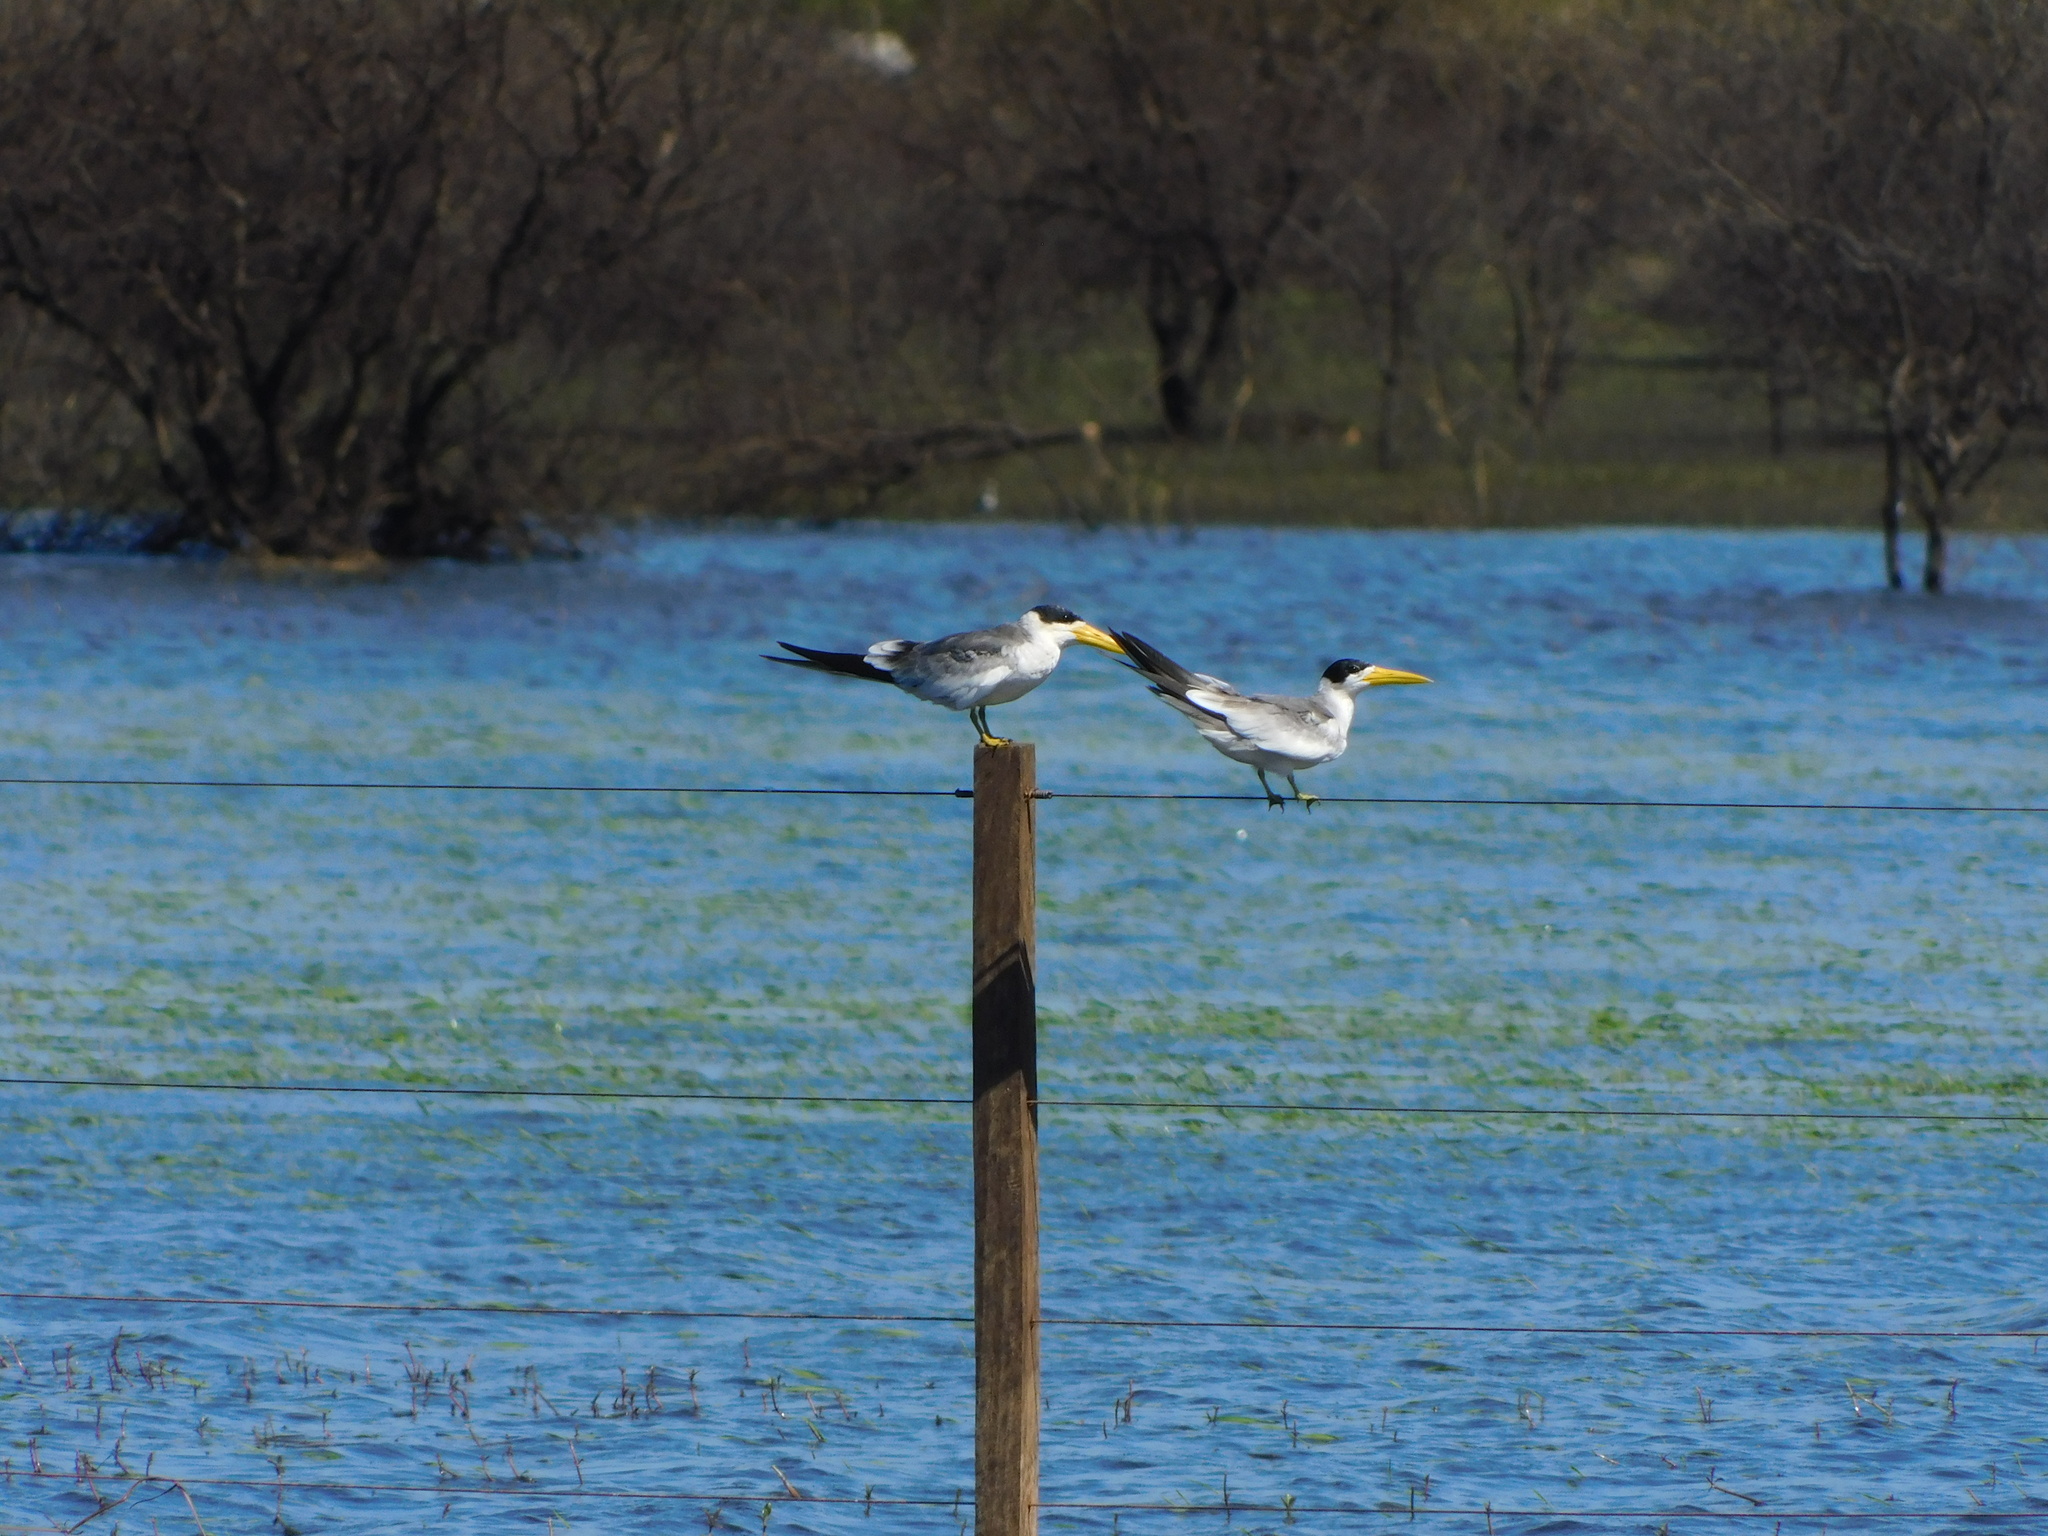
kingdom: Animalia
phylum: Chordata
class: Aves
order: Charadriiformes
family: Laridae
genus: Phaetusa
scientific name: Phaetusa simplex
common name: Large-billed tern
